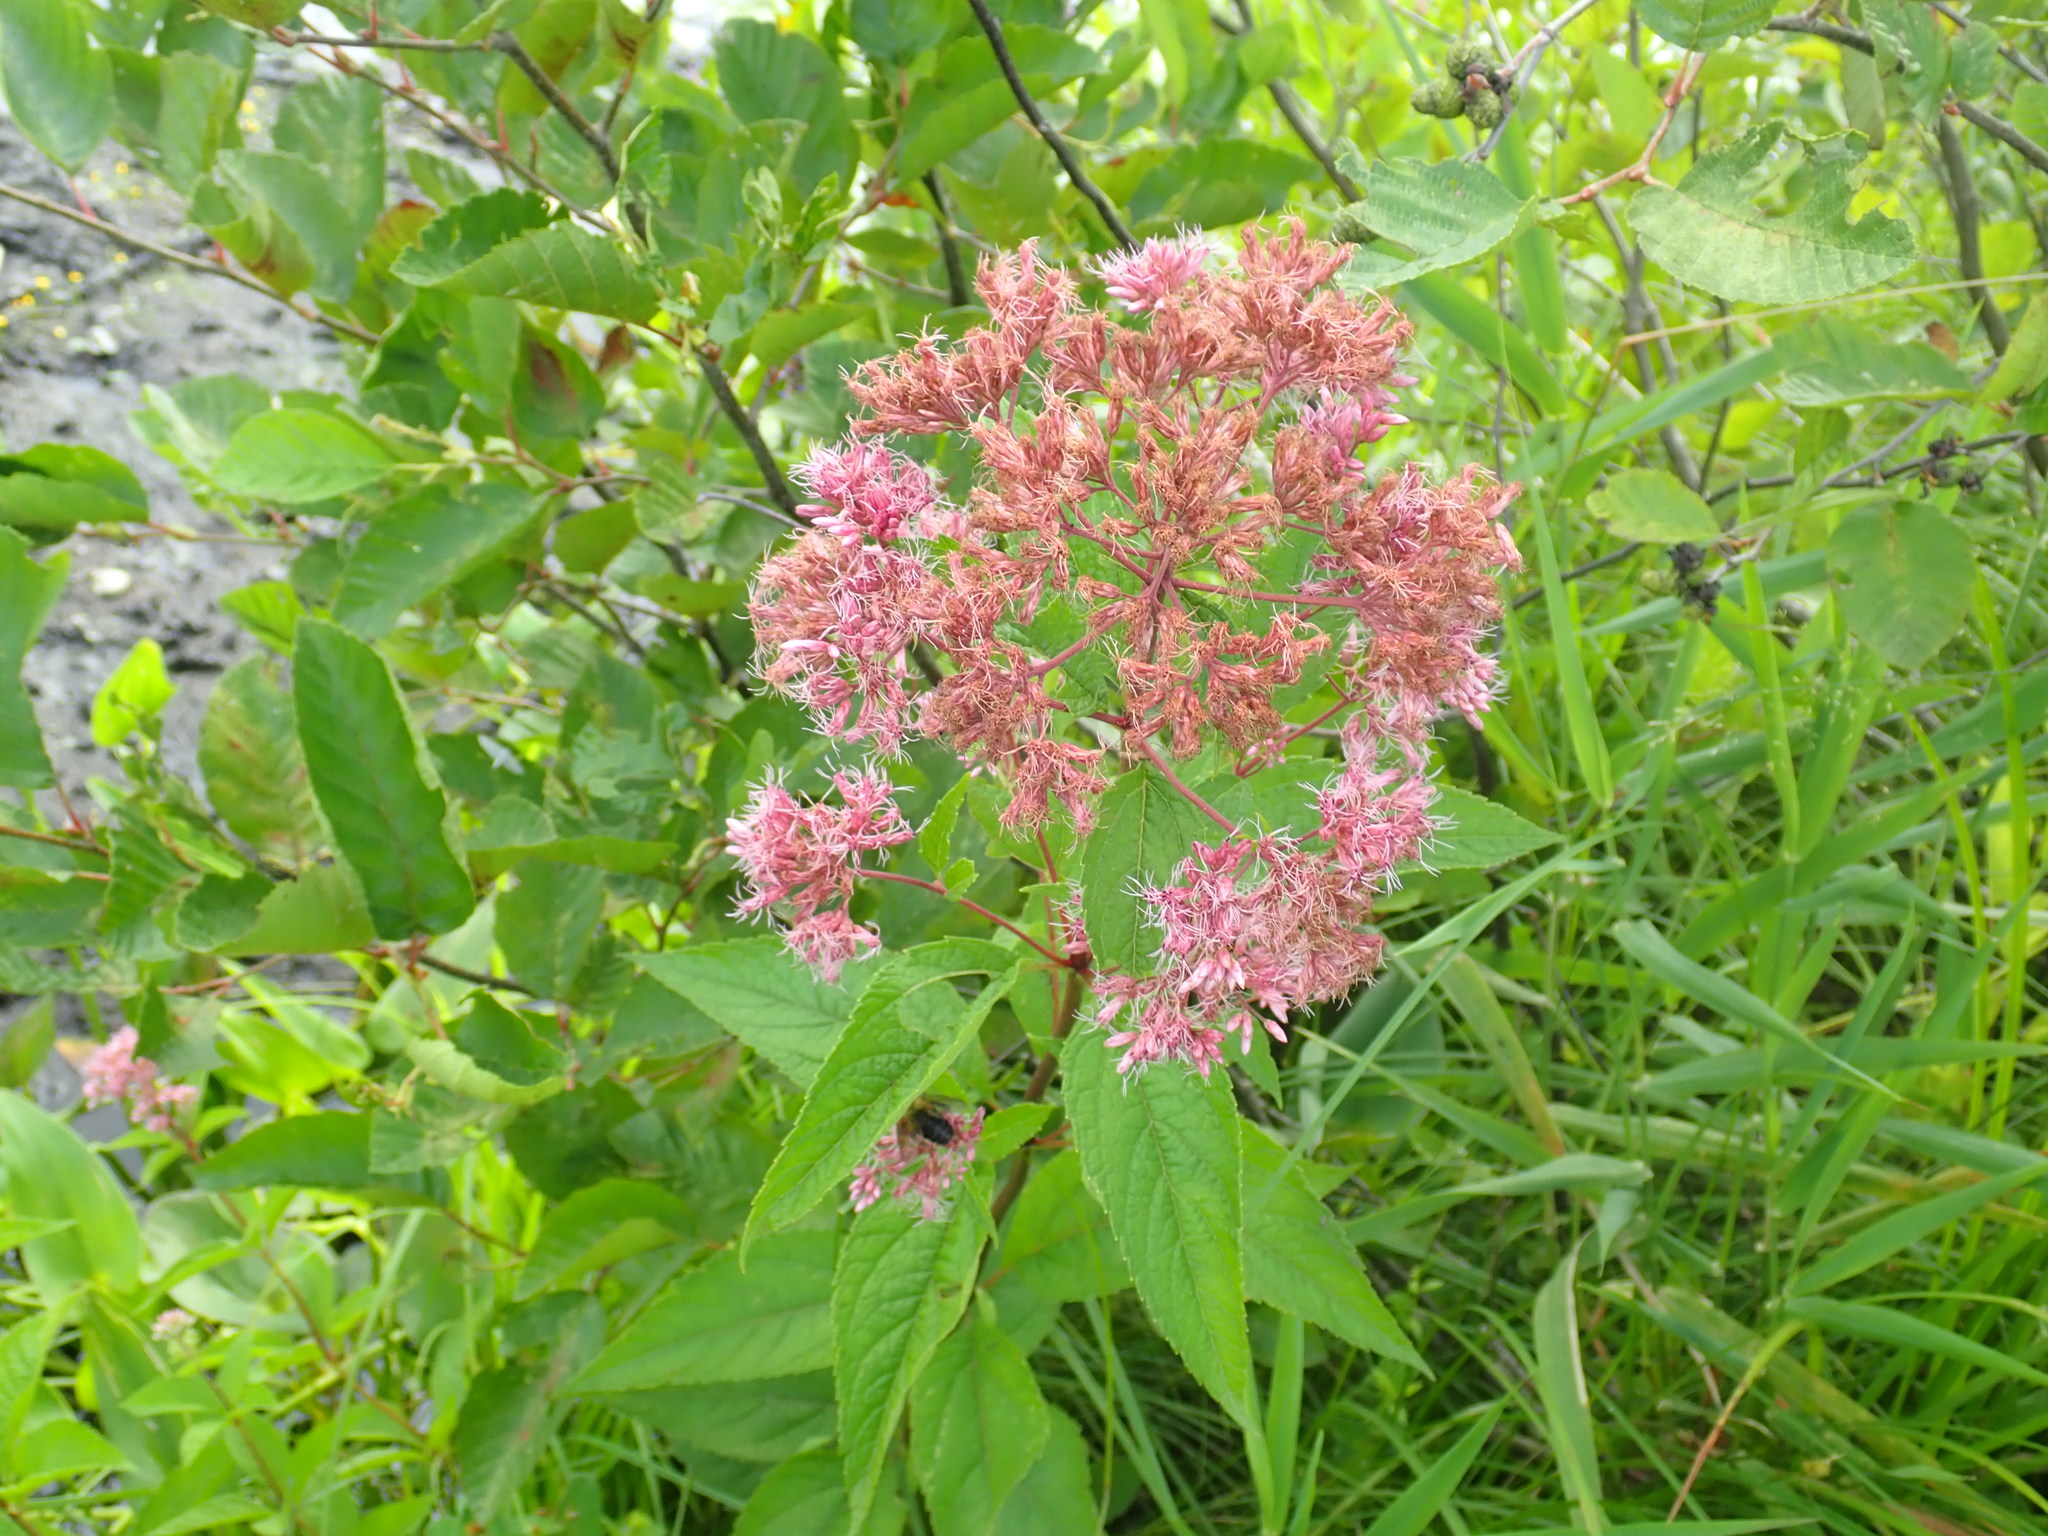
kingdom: Plantae
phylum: Tracheophyta
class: Magnoliopsida
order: Asterales
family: Asteraceae
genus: Eutrochium
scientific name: Eutrochium
